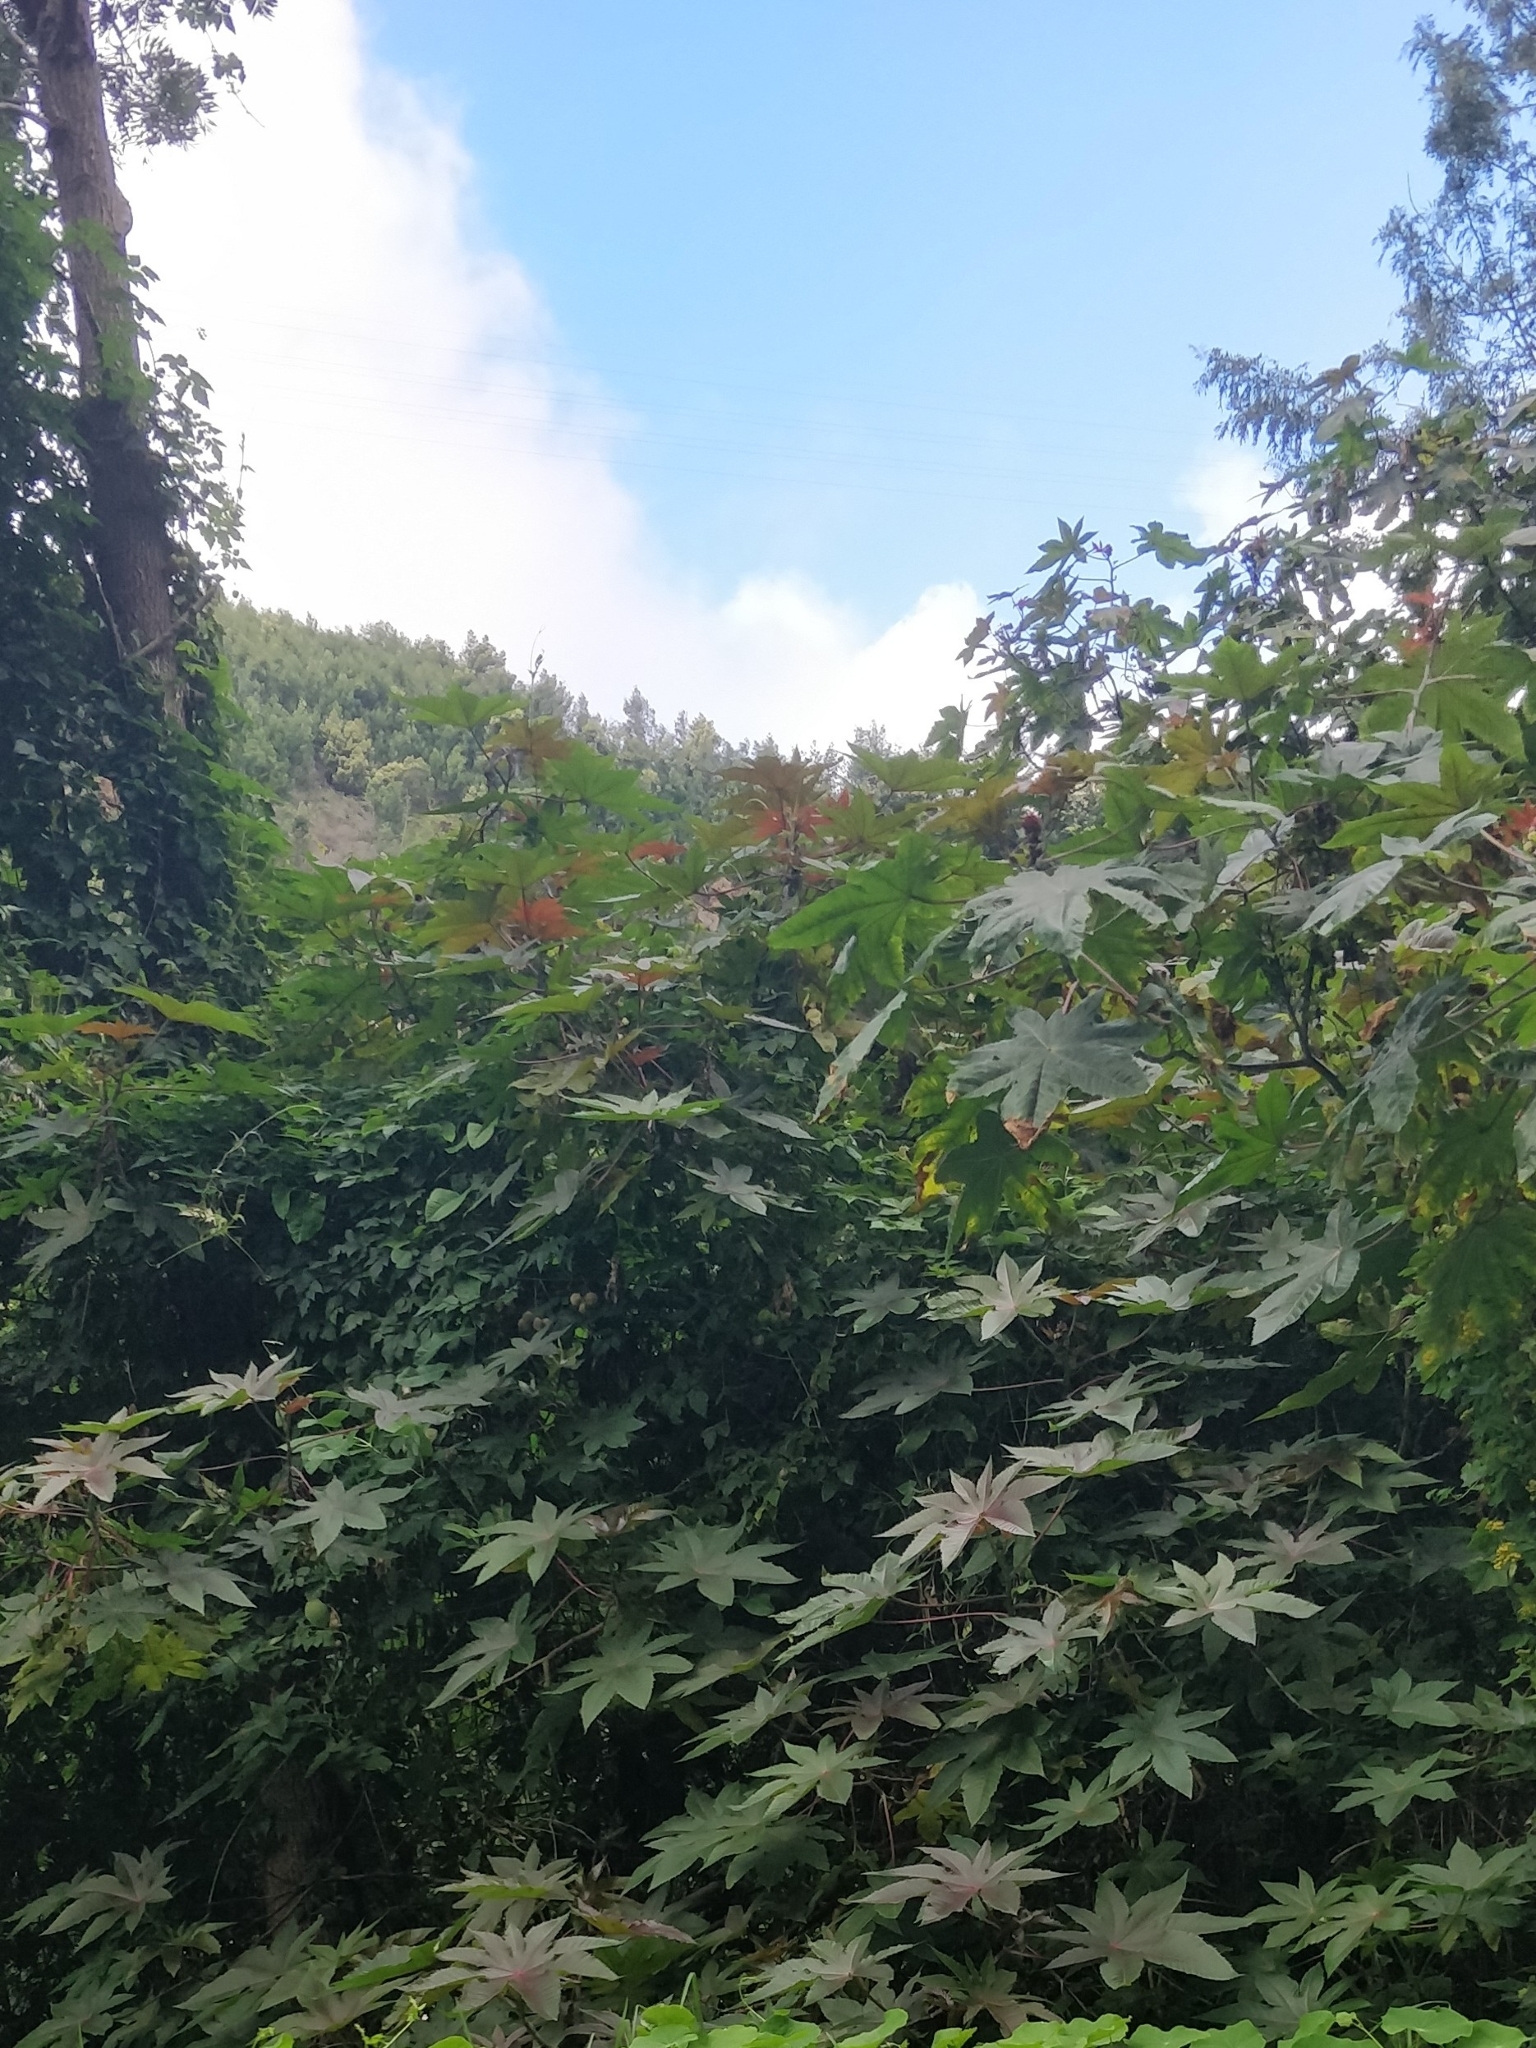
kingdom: Plantae
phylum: Tracheophyta
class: Magnoliopsida
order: Malpighiales
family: Euphorbiaceae
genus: Ricinus
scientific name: Ricinus communis
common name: Castor-oil-plant
